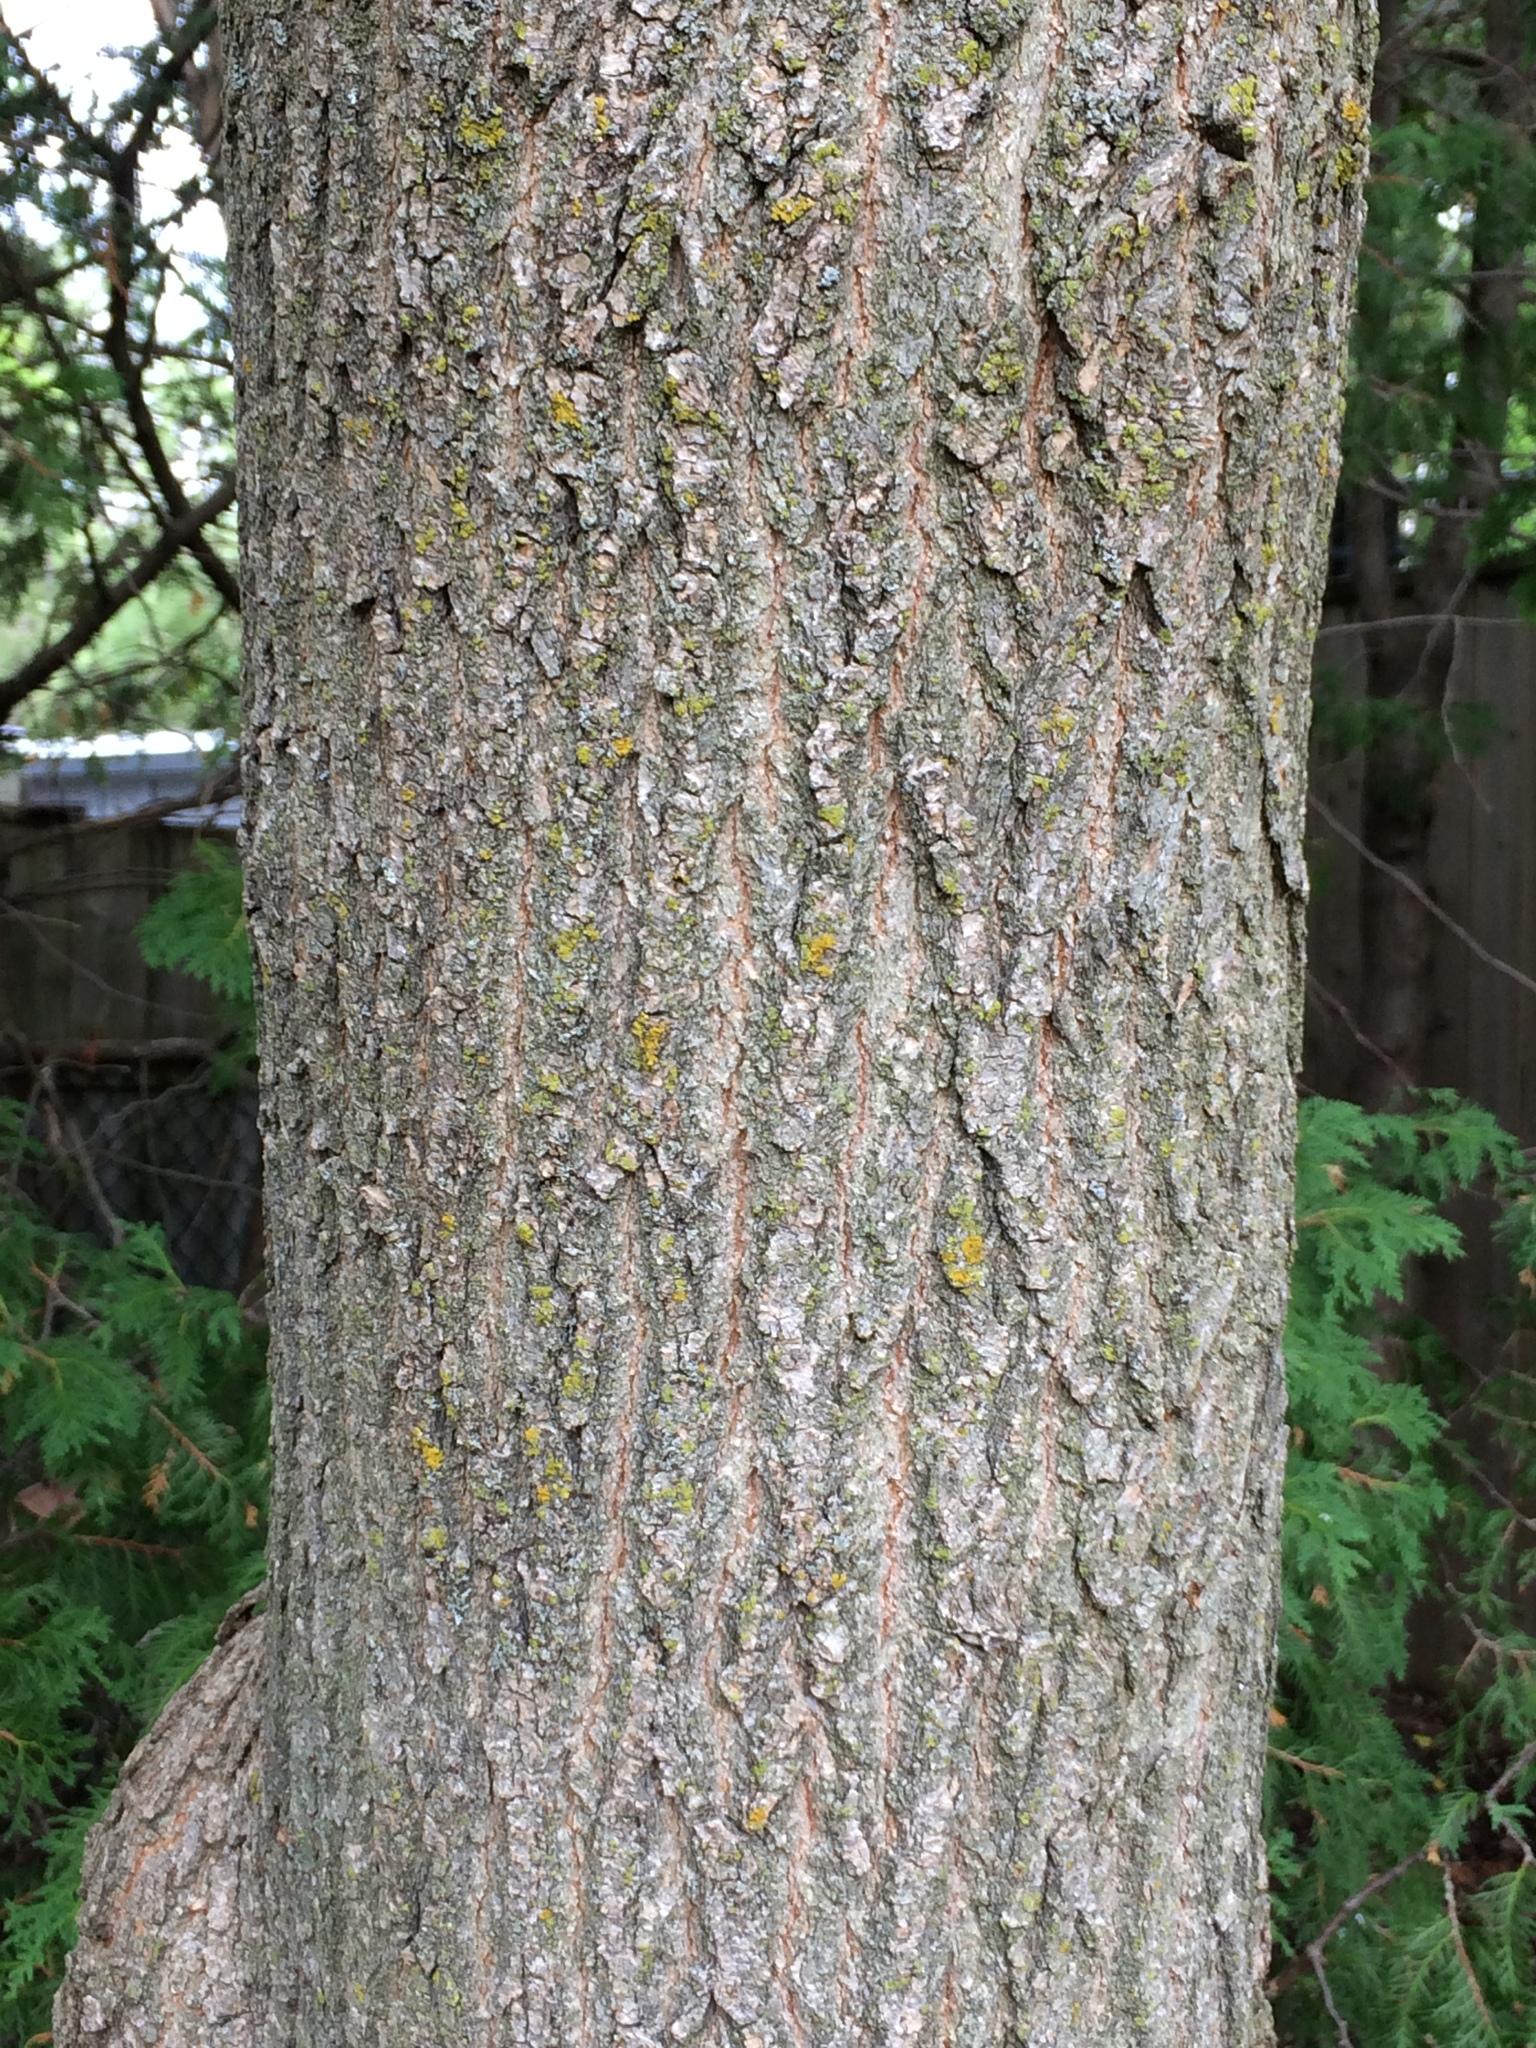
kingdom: Plantae
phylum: Tracheophyta
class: Magnoliopsida
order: Sapindales
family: Sapindaceae
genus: Acer
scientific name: Acer negundo
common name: Ashleaf maple
